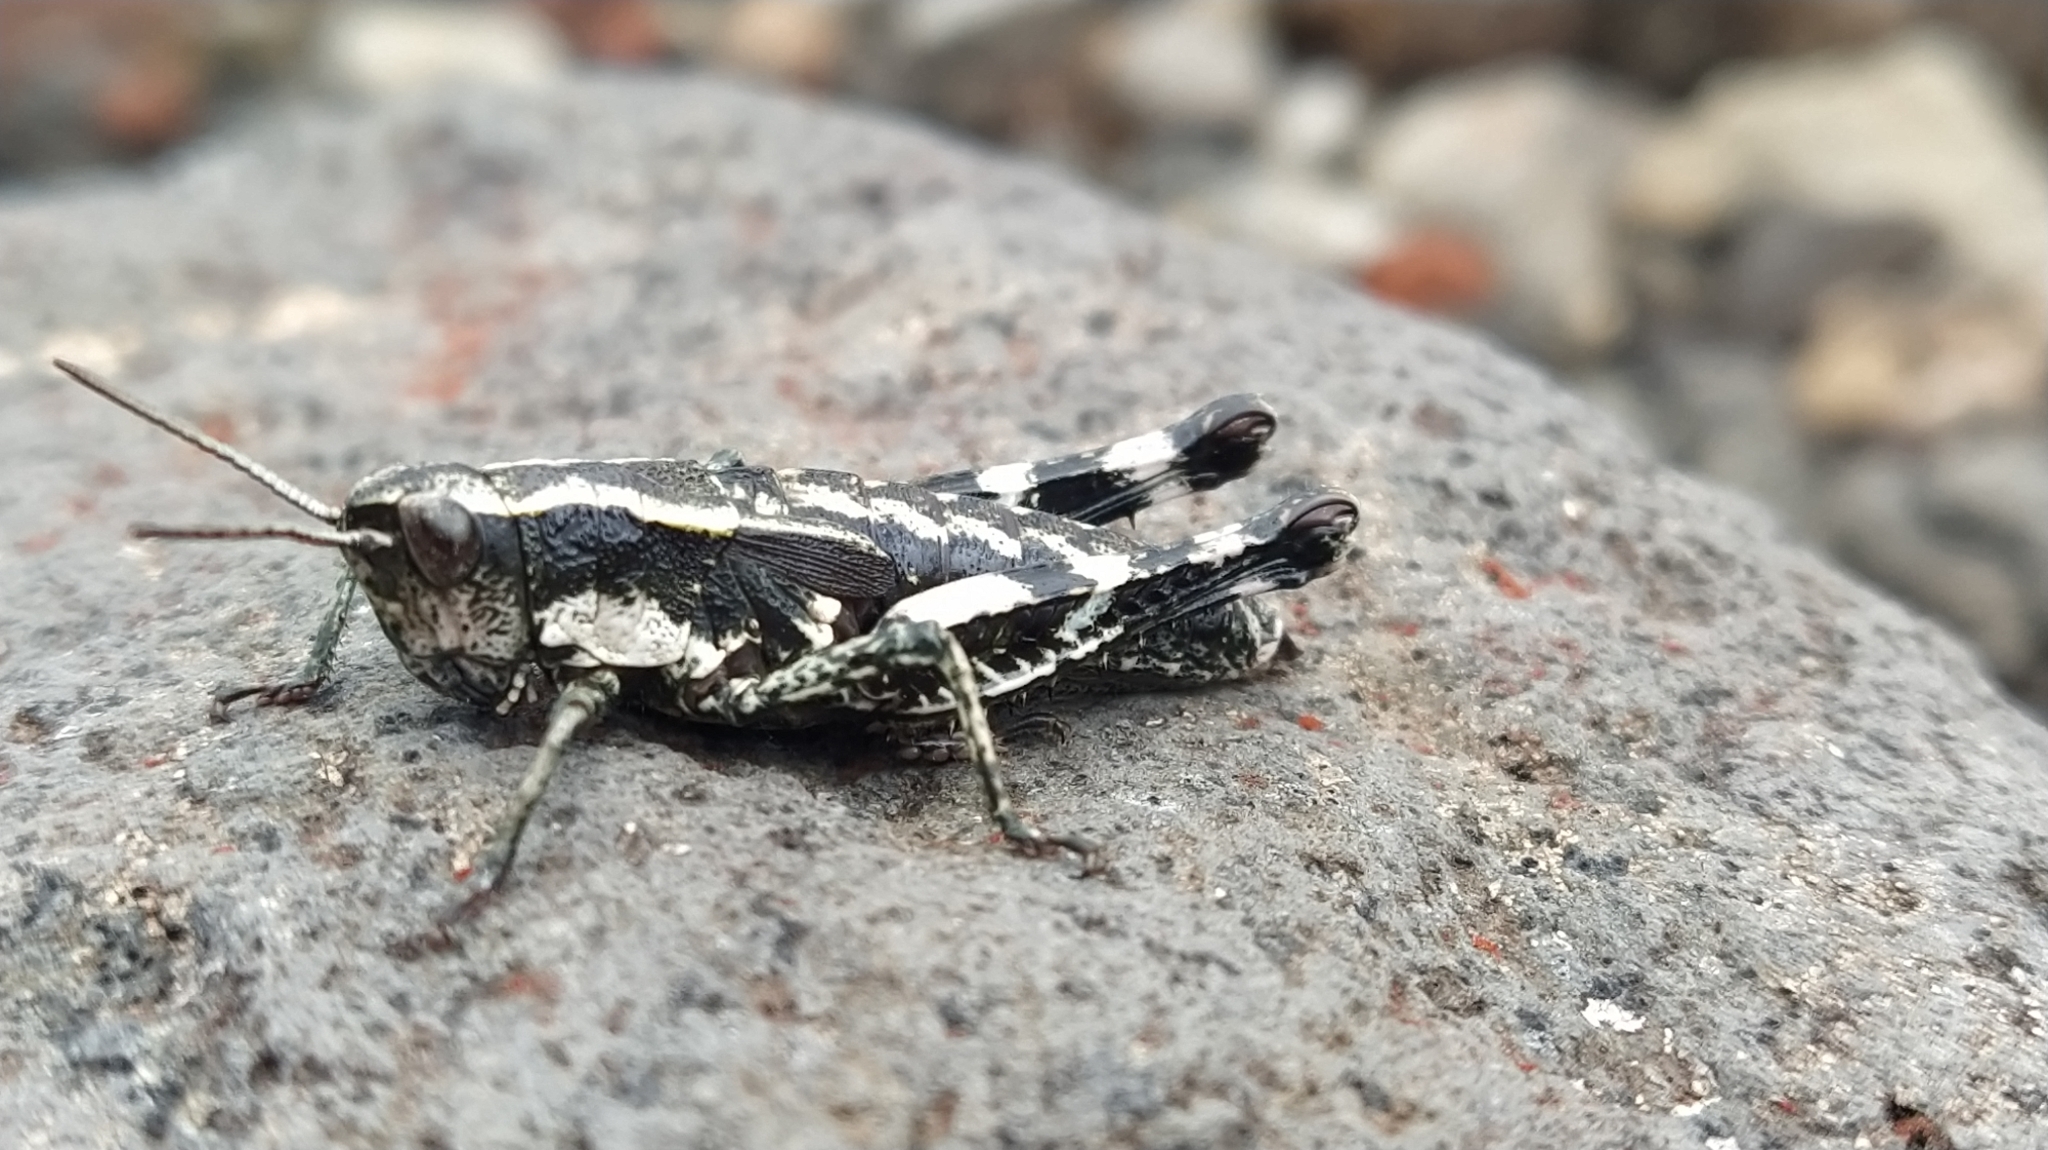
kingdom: Animalia
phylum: Arthropoda
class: Insecta
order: Orthoptera
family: Acrididae
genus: Sigaus
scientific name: Sigaus piliferus
